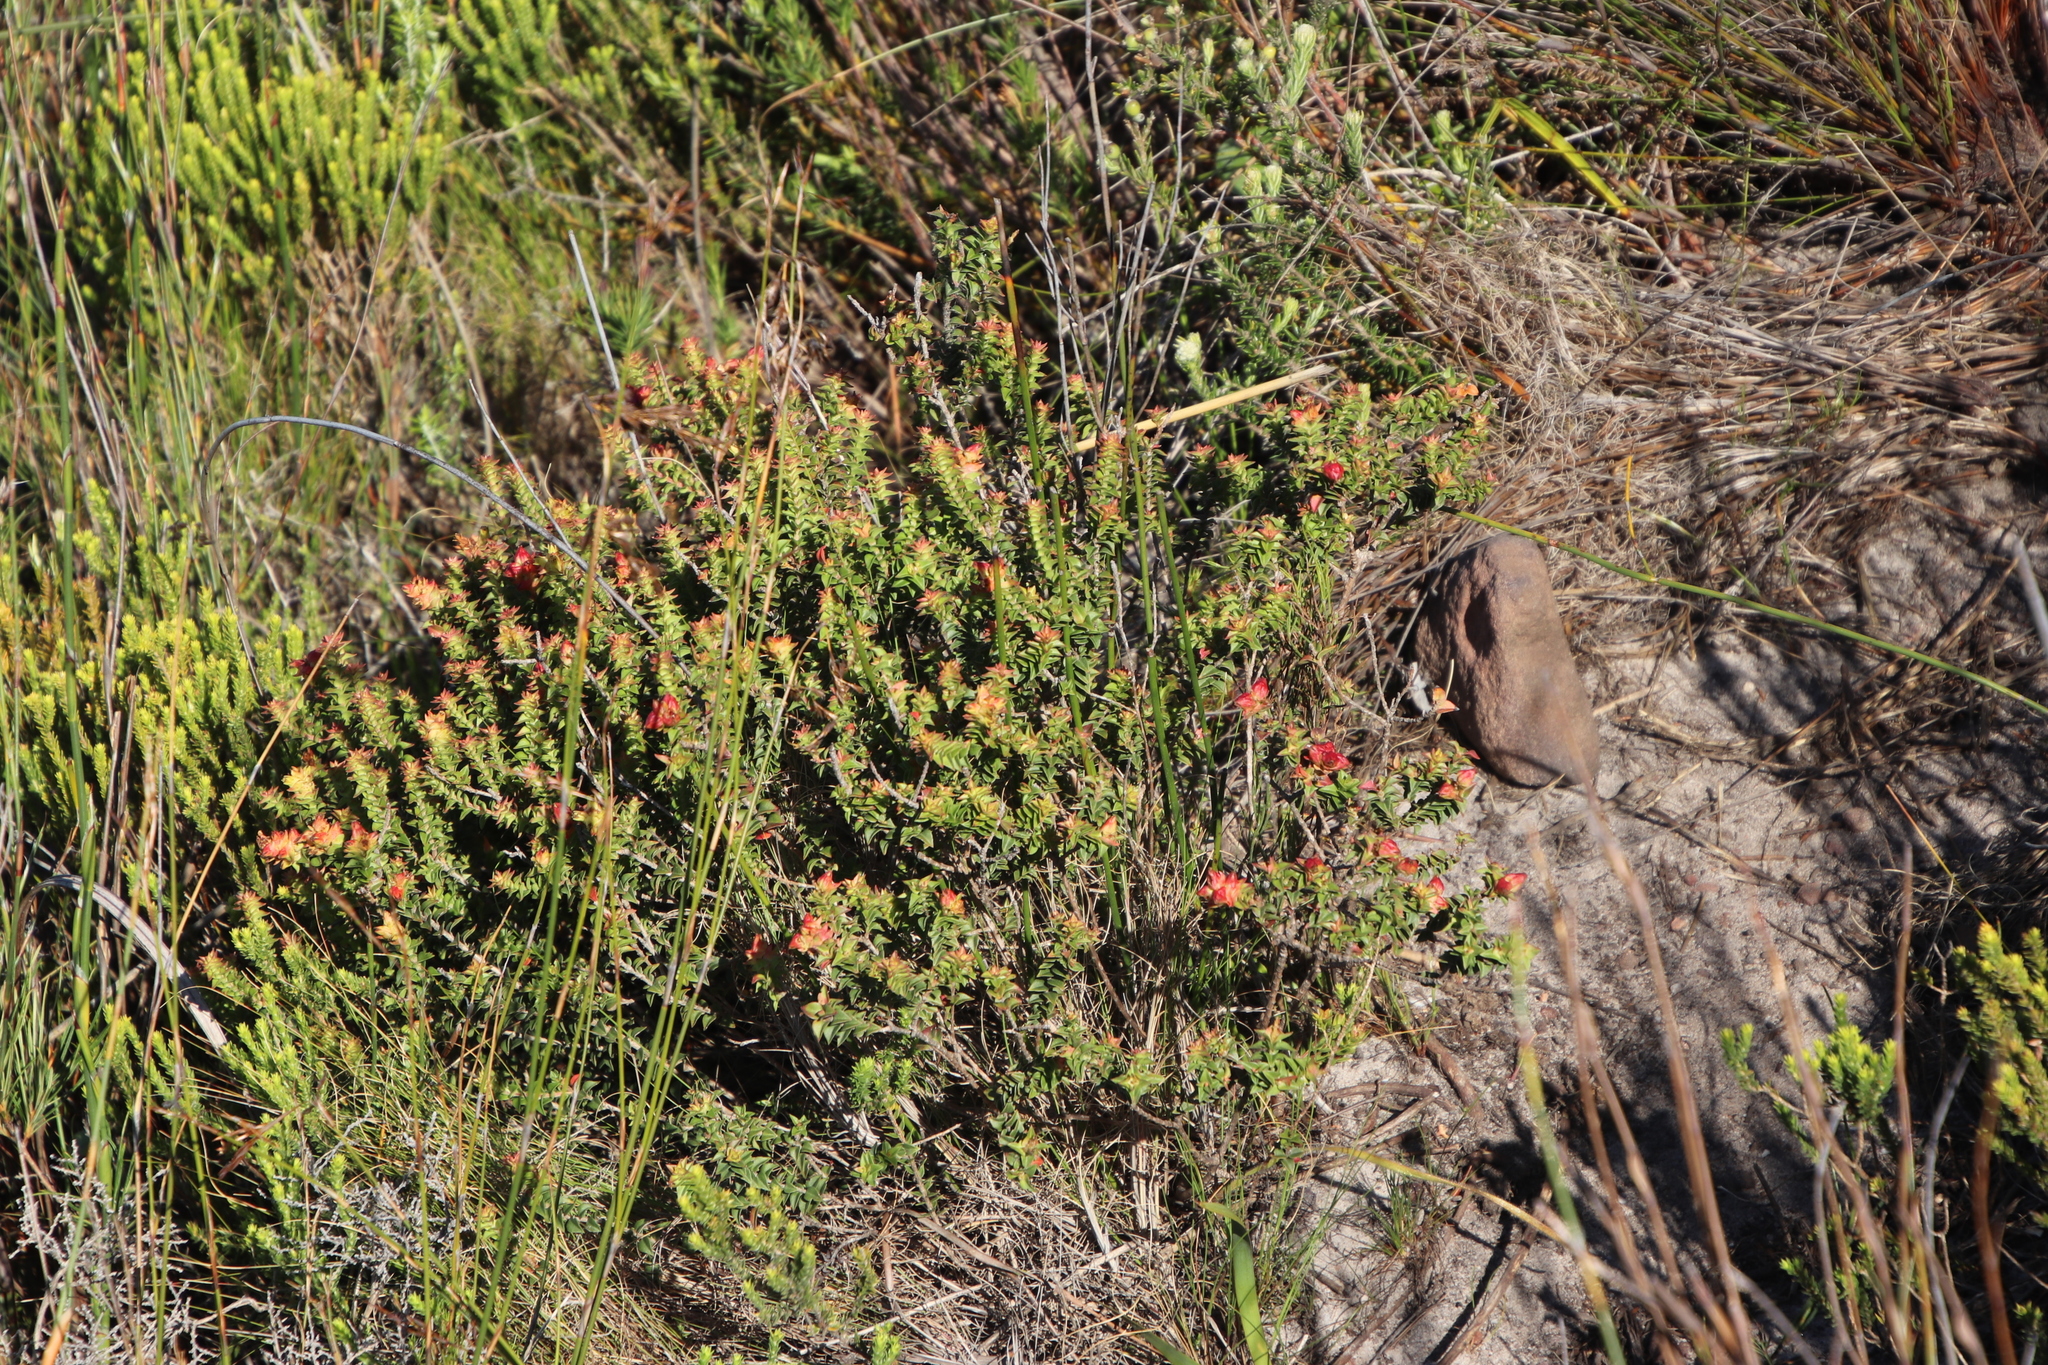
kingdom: Plantae
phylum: Tracheophyta
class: Magnoliopsida
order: Myrtales
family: Penaeaceae
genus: Penaea
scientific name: Penaea mucronata
